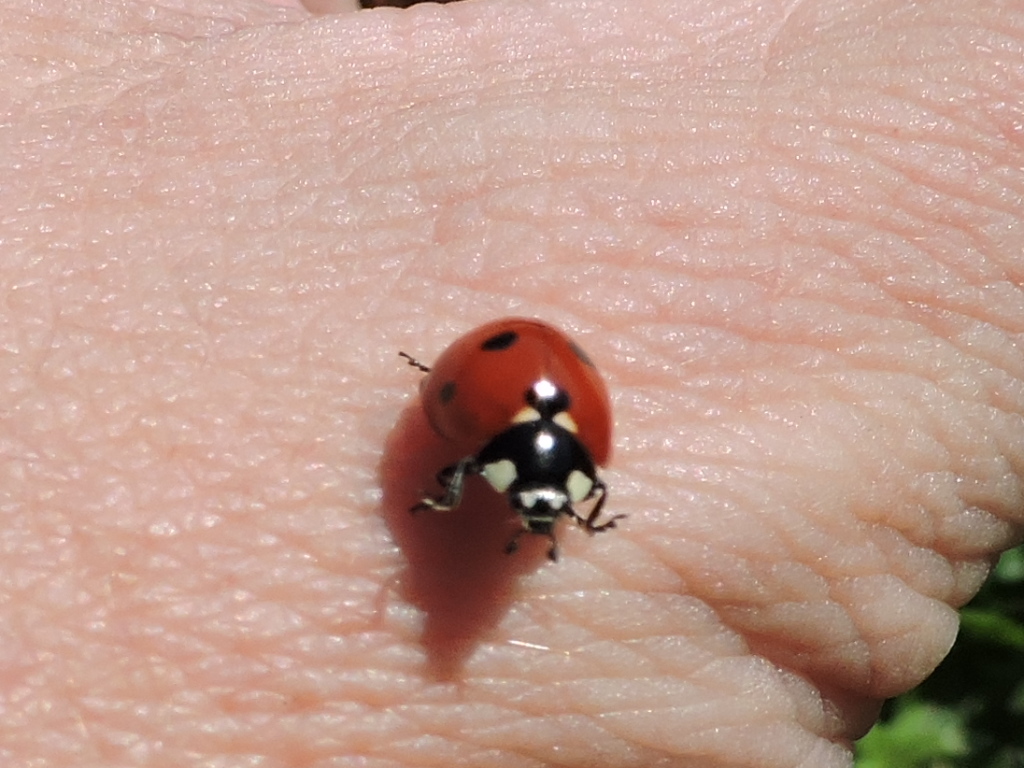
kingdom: Animalia
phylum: Arthropoda
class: Insecta
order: Coleoptera
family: Coccinellidae
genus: Coccinella
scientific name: Coccinella septempunctata
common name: Sevenspotted lady beetle
